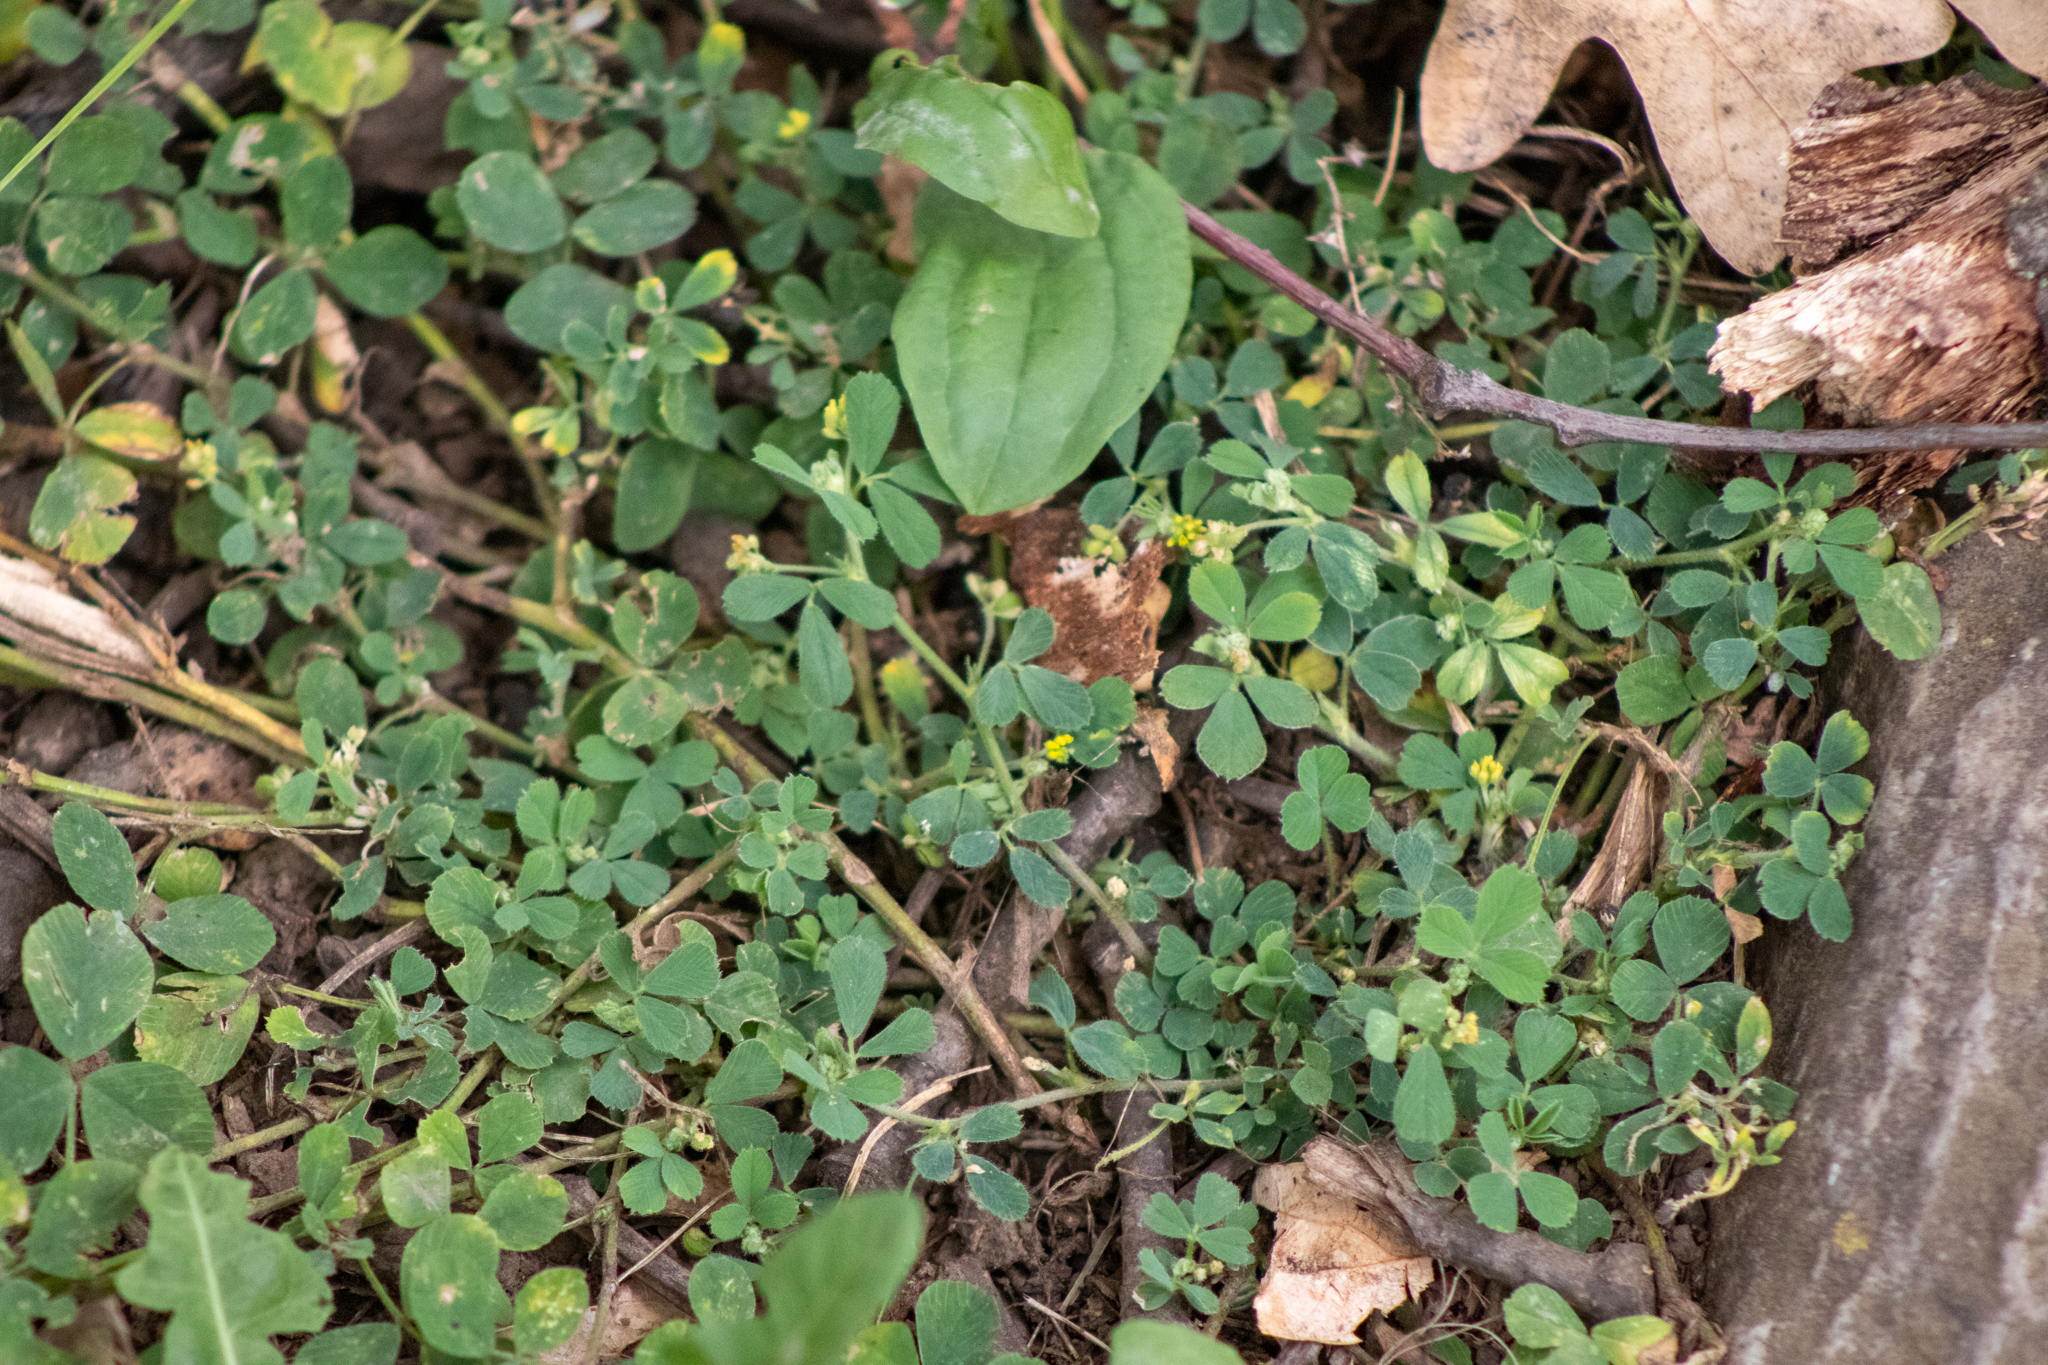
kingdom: Plantae
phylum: Tracheophyta
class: Magnoliopsida
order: Fabales
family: Fabaceae
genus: Medicago
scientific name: Medicago lupulina
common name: Black medick
